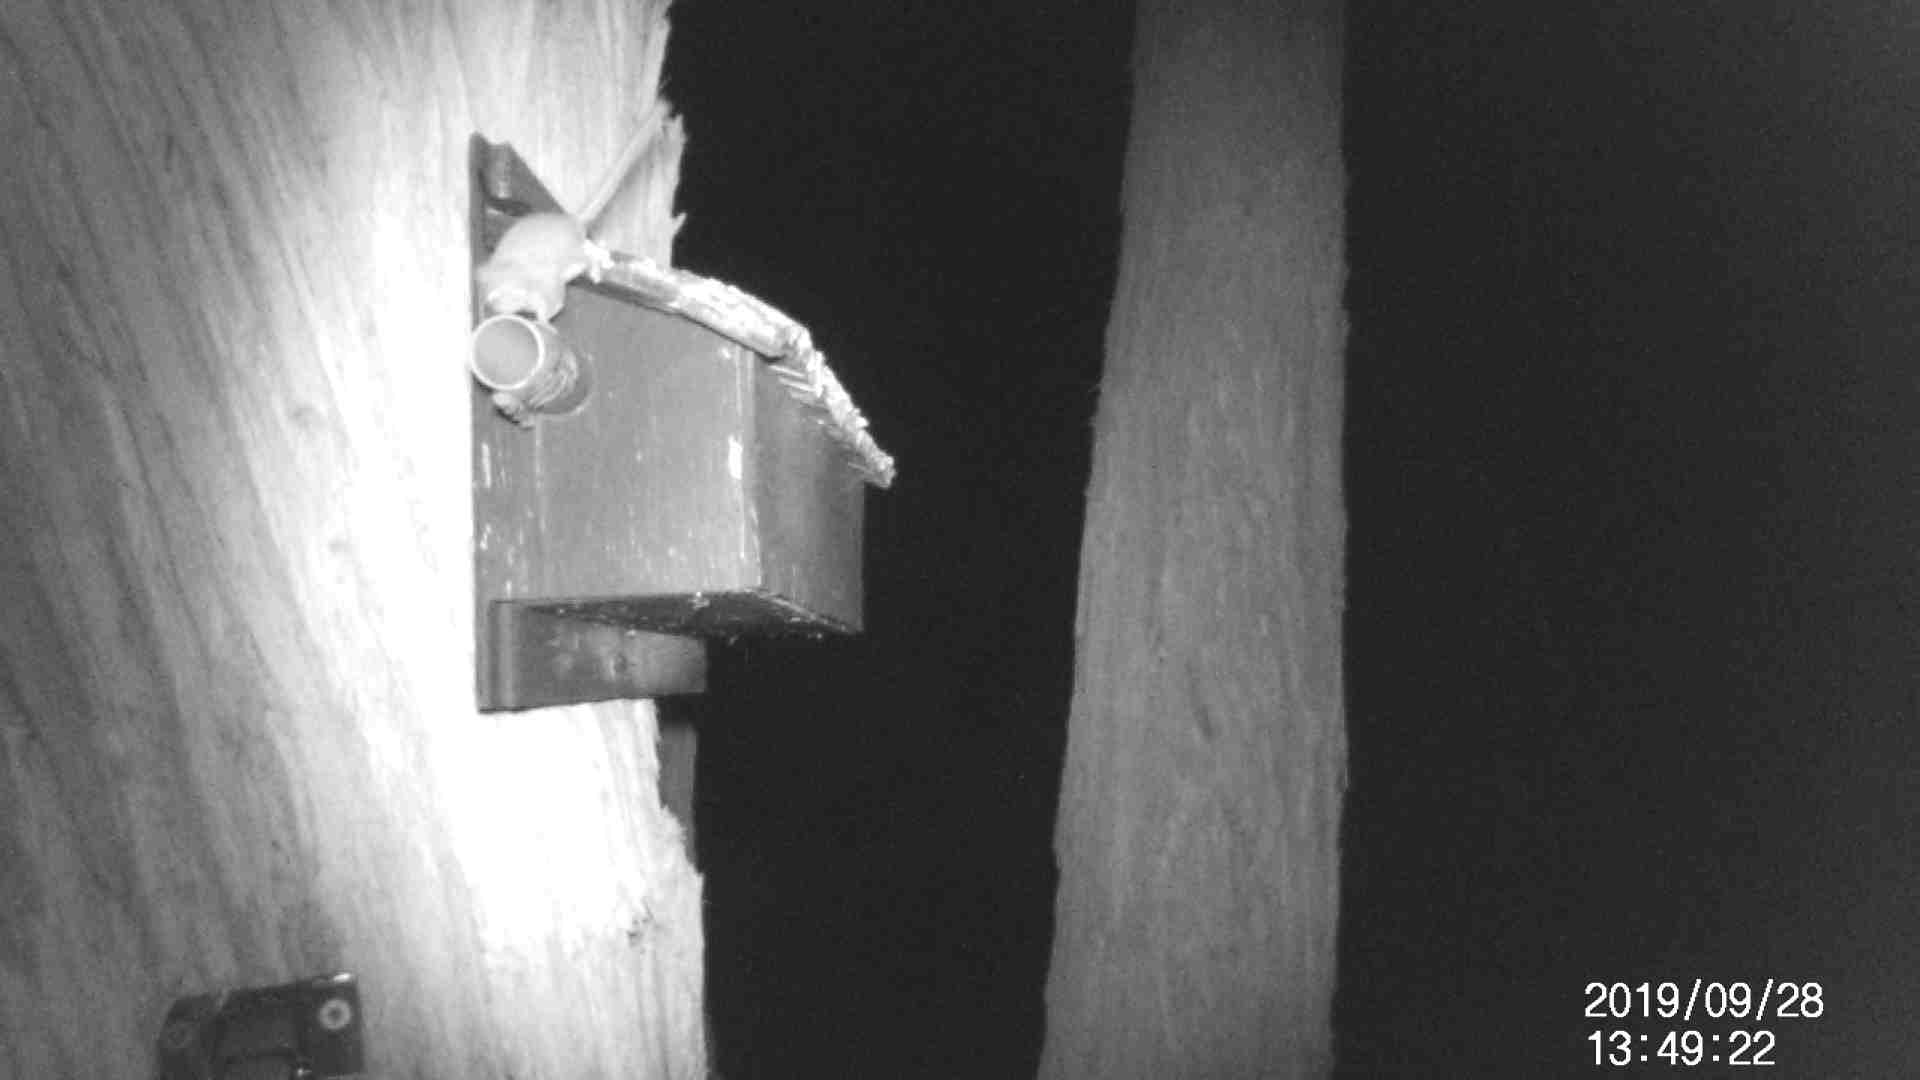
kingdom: Animalia
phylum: Chordata
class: Mammalia
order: Diprotodontia
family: Acrobatidae
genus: Acrobates
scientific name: Acrobates pygmaeus
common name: Feathertail glider
